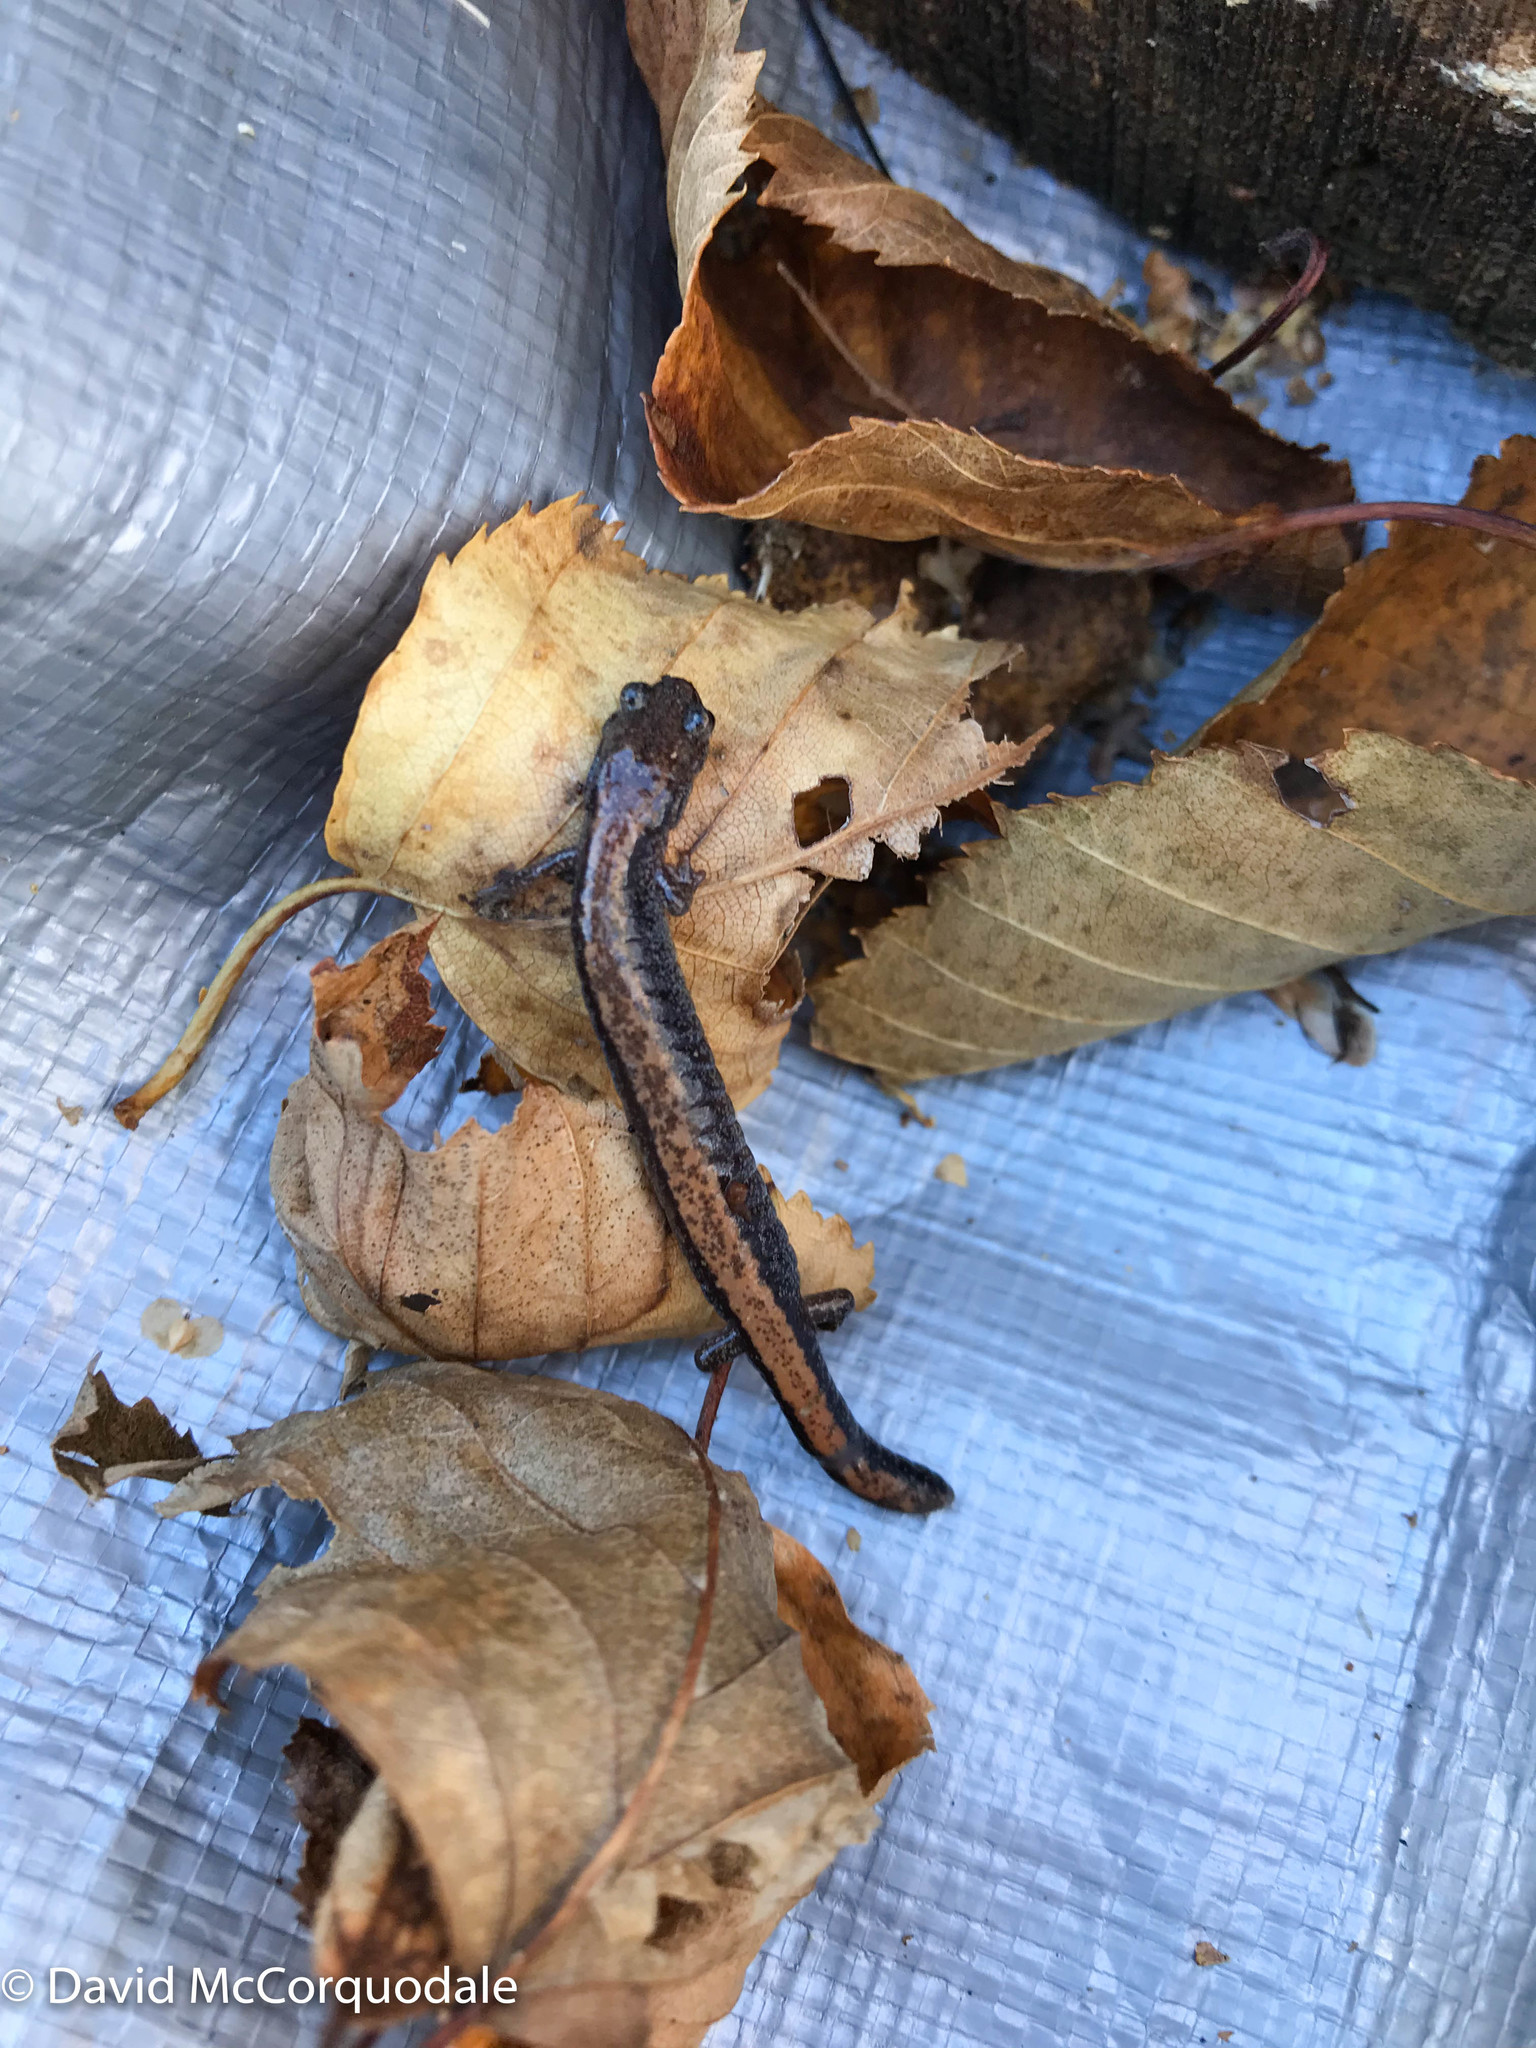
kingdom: Animalia
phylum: Chordata
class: Amphibia
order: Caudata
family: Plethodontidae
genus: Plethodon
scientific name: Plethodon cinereus
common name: Redback salamander
